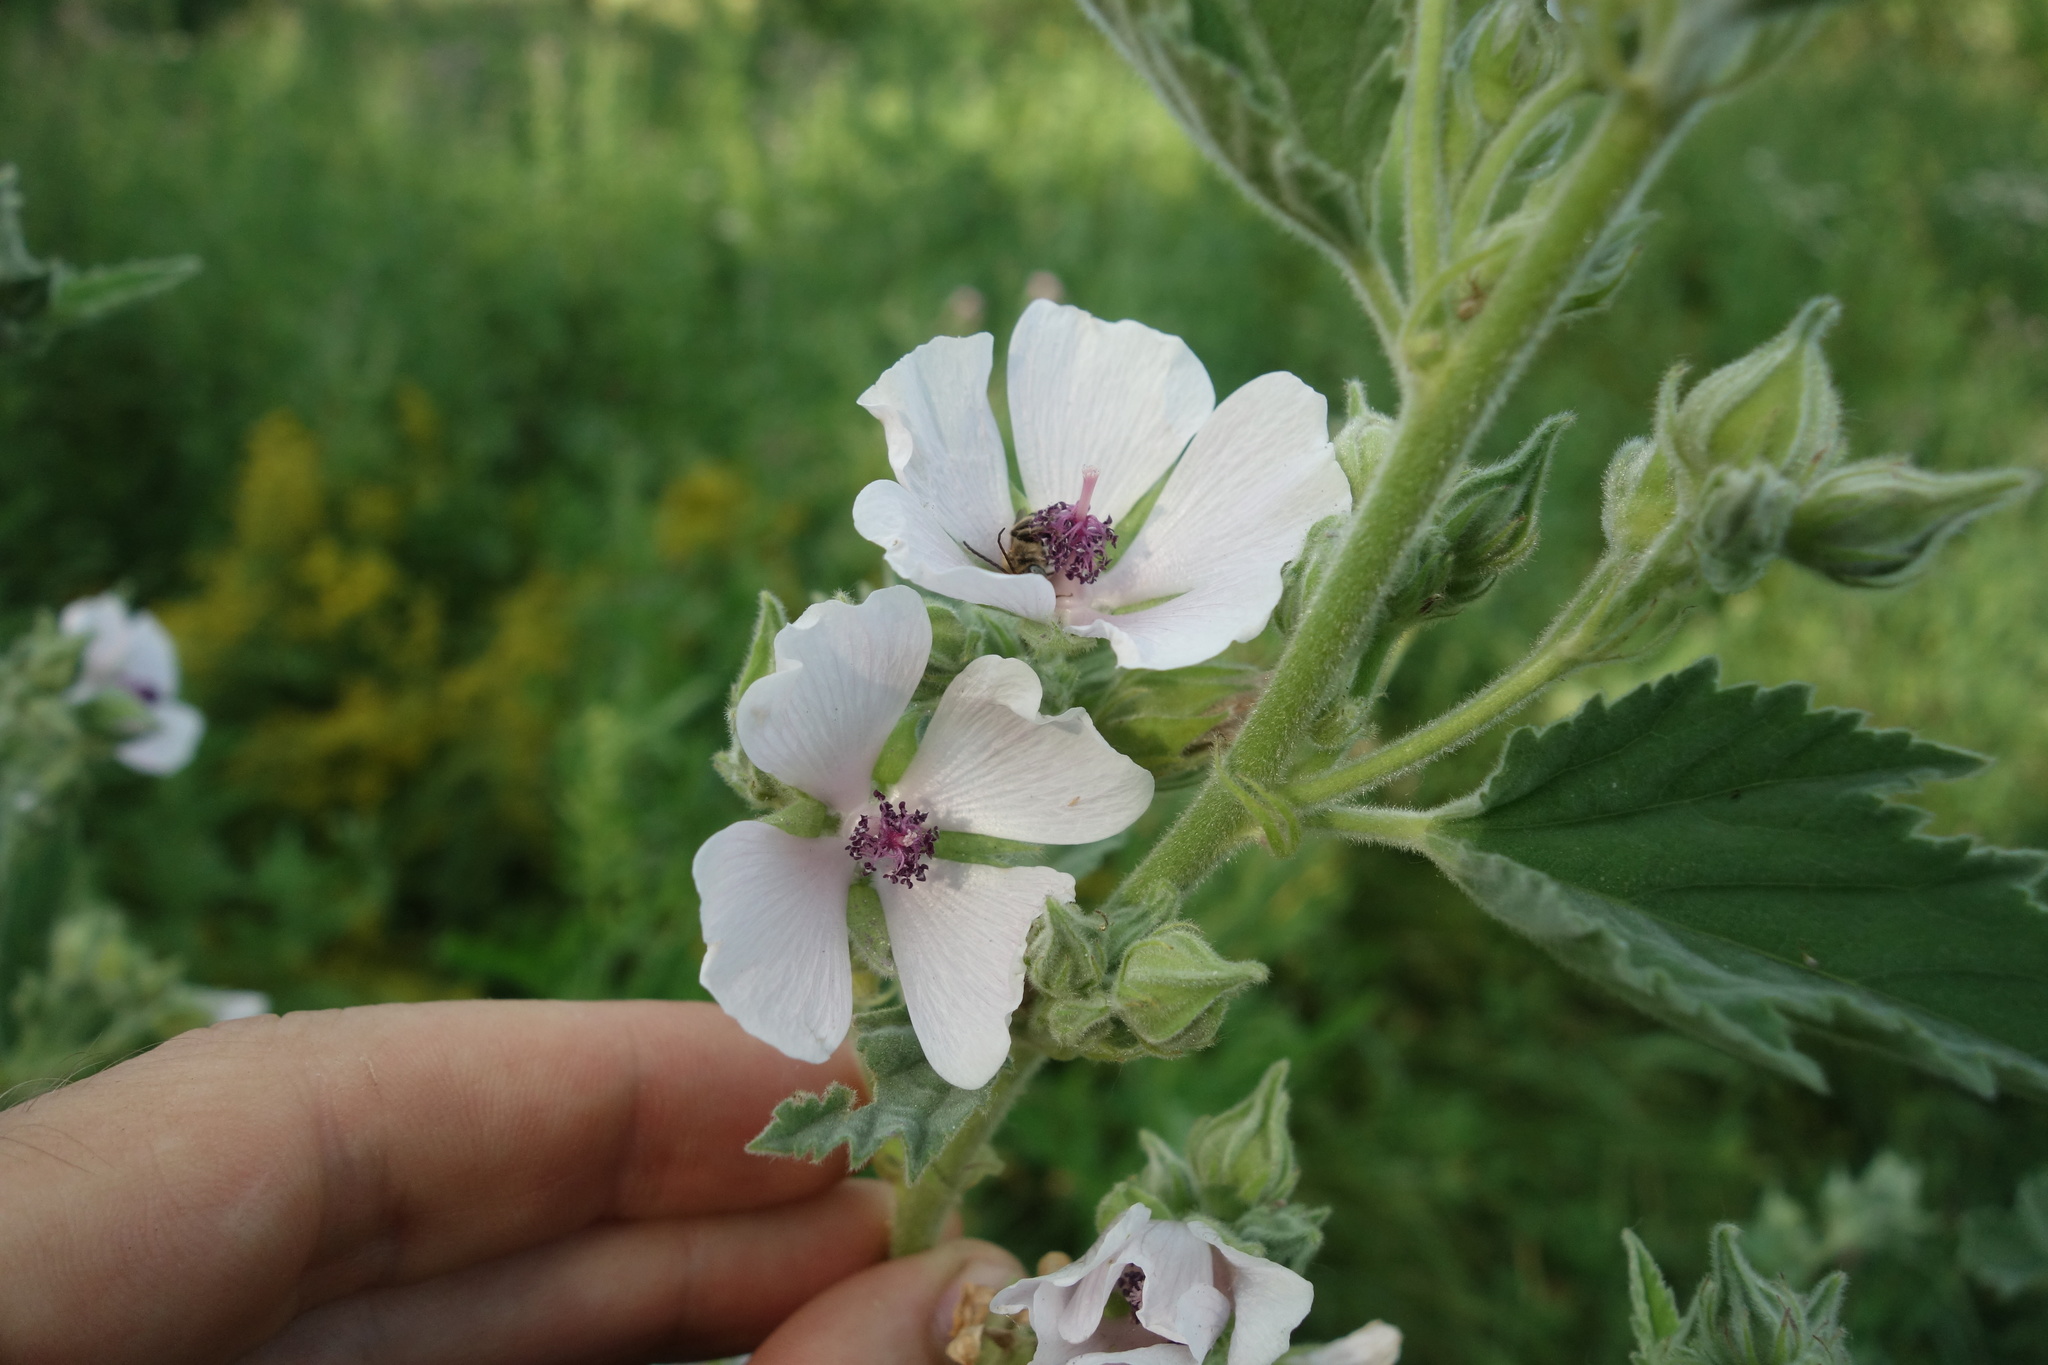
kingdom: Plantae
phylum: Tracheophyta
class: Magnoliopsida
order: Malvales
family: Malvaceae
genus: Althaea
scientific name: Althaea officinalis
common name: Marsh-mallow
